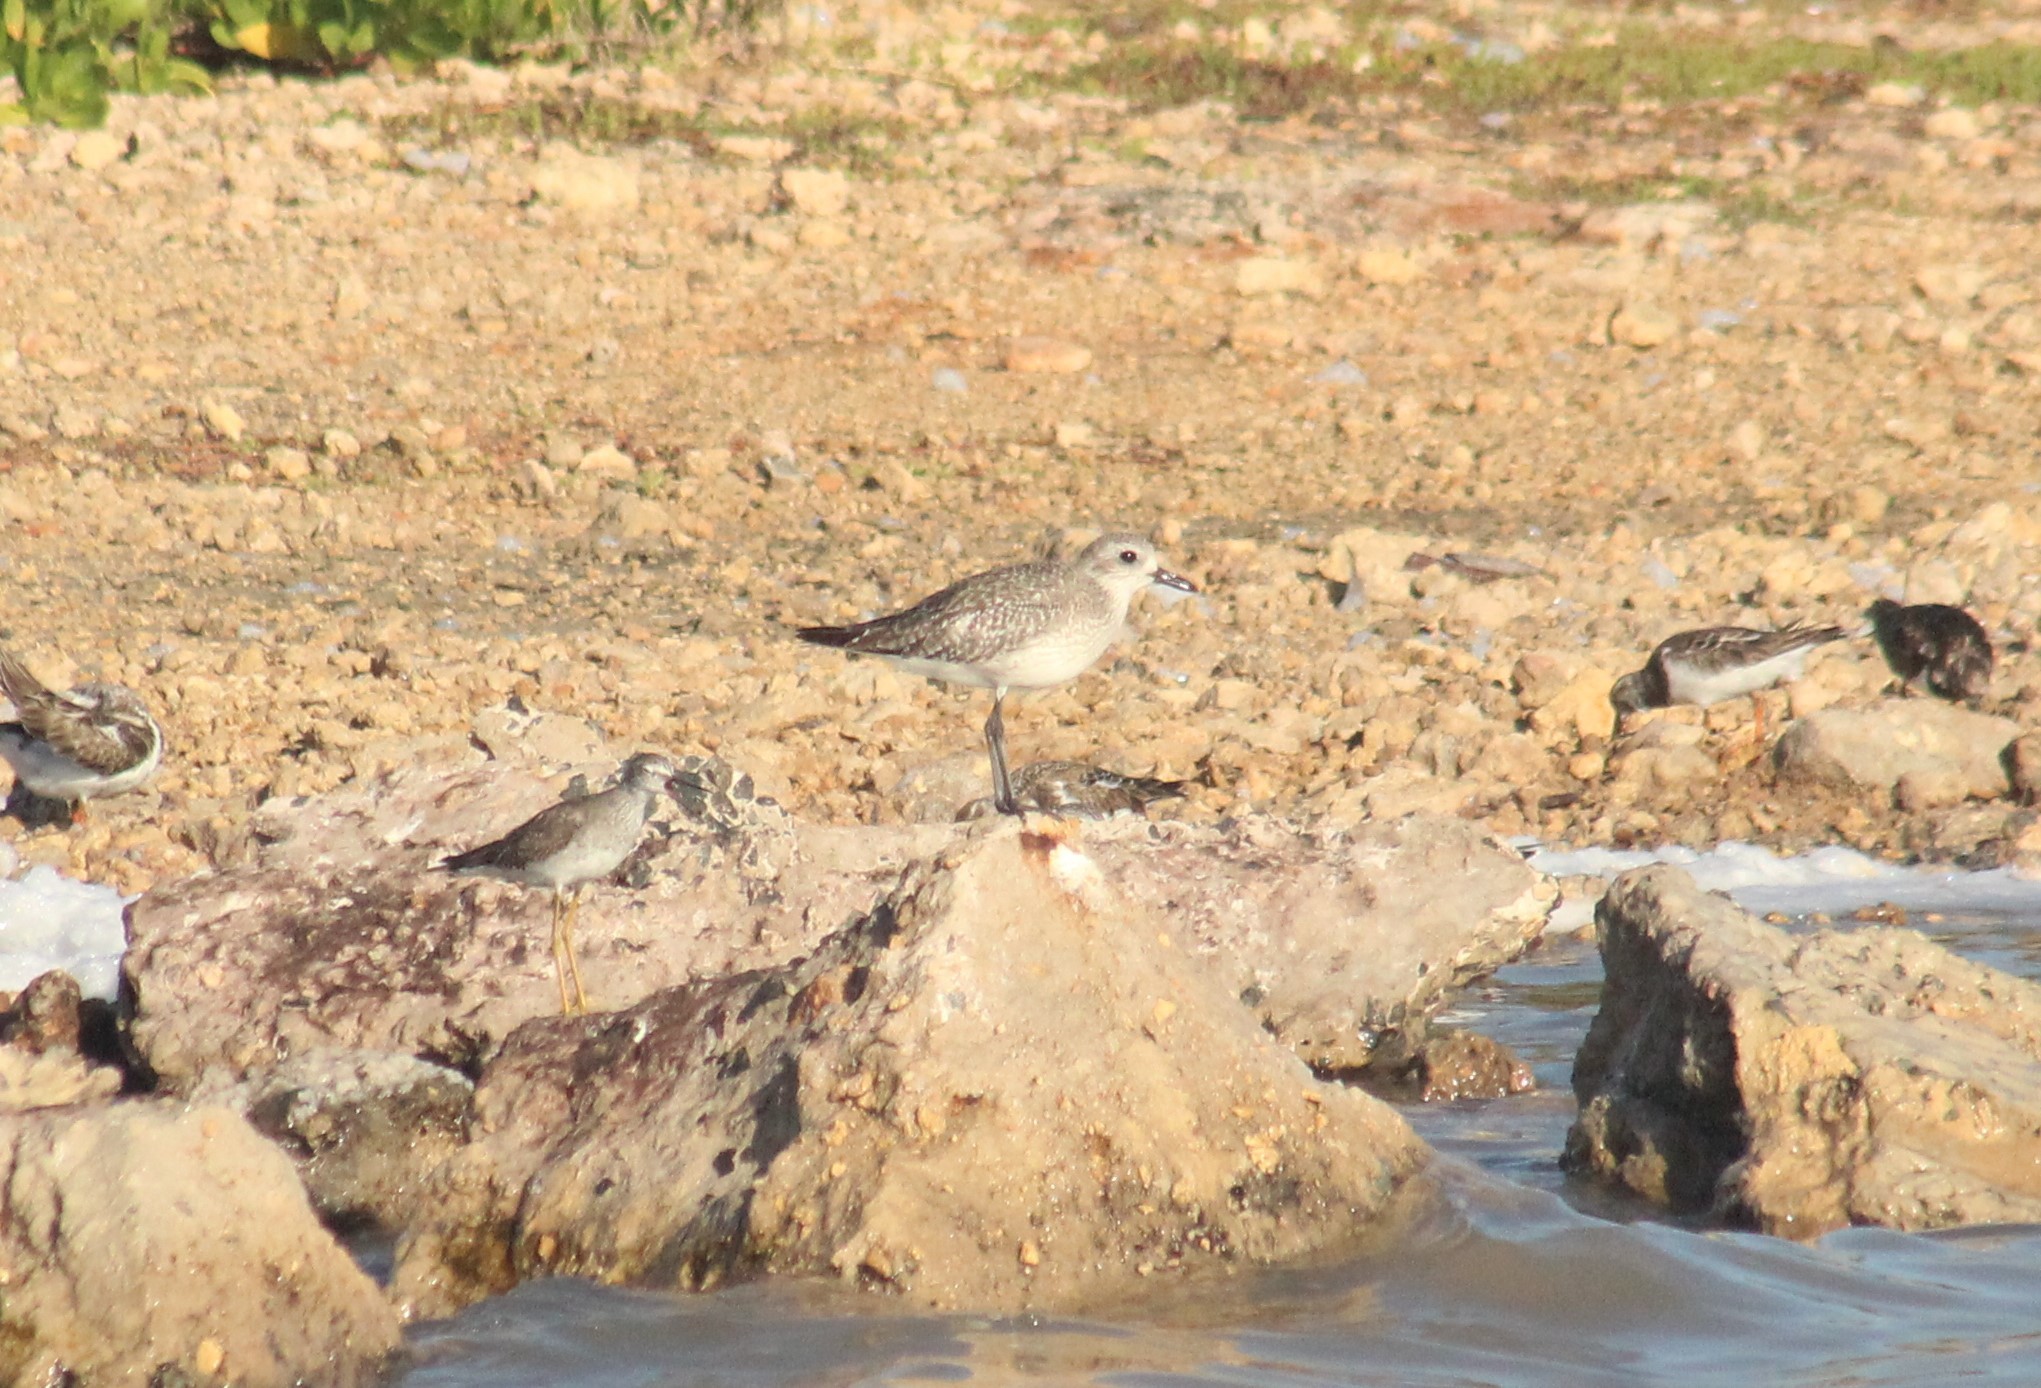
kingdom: Animalia
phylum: Chordata
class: Aves
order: Charadriiformes
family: Charadriidae
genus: Pluvialis
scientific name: Pluvialis squatarola
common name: Grey plover
